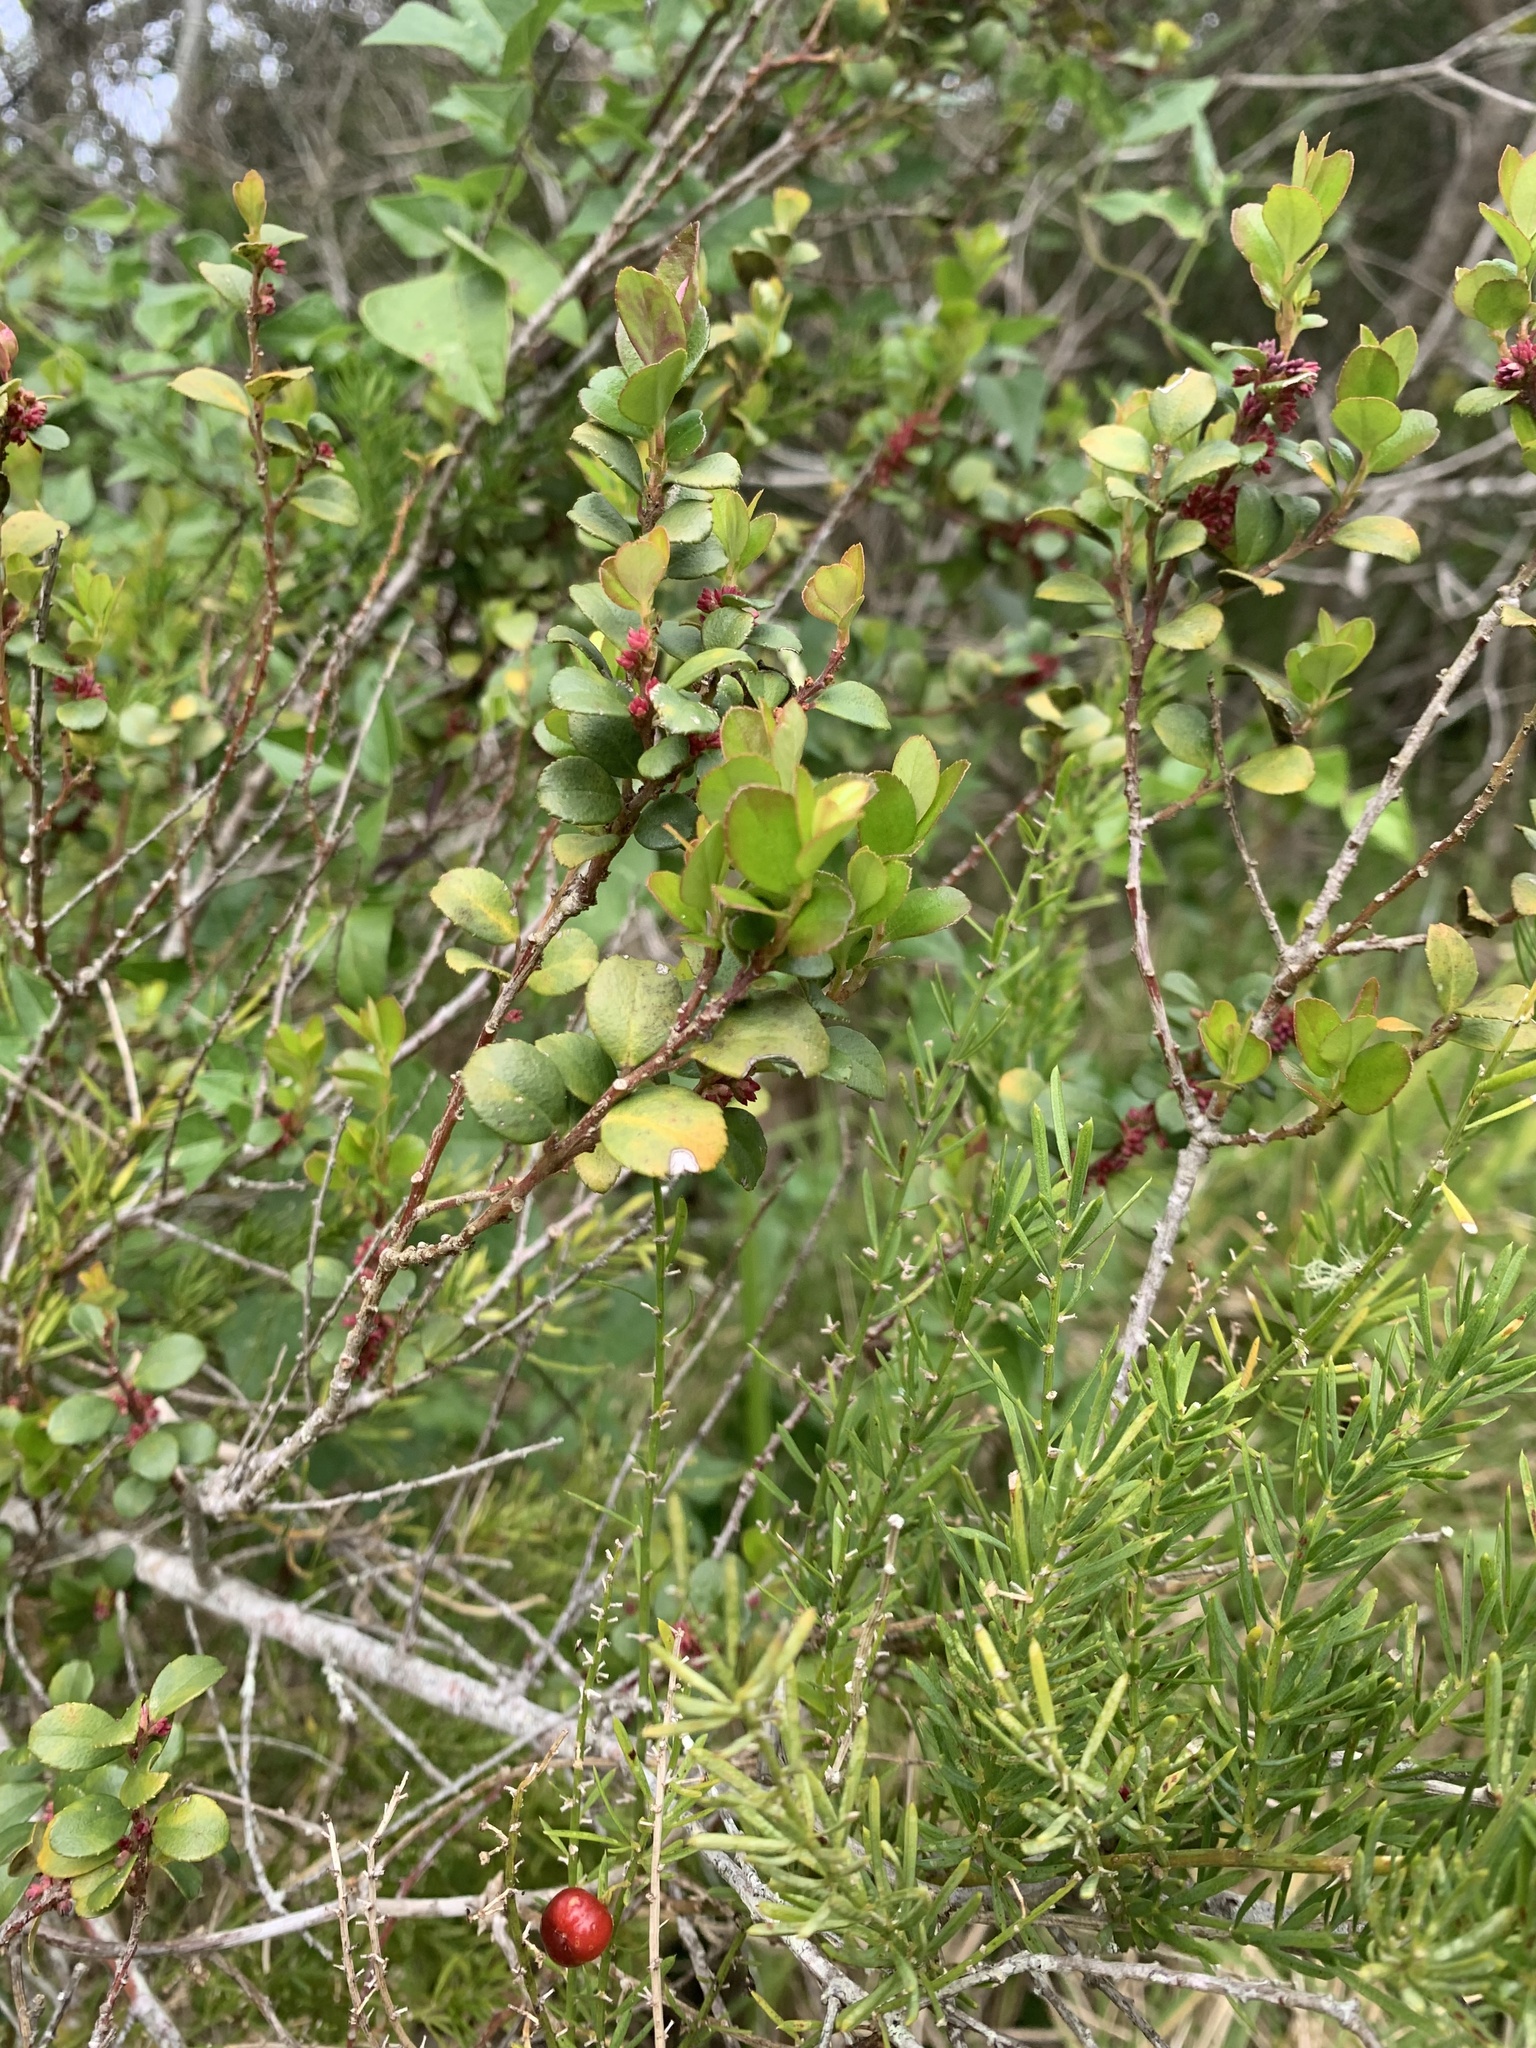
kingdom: Plantae
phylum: Tracheophyta
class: Magnoliopsida
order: Ericales
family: Primulaceae
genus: Myrsine
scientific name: Myrsine africana
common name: African-boxwood
